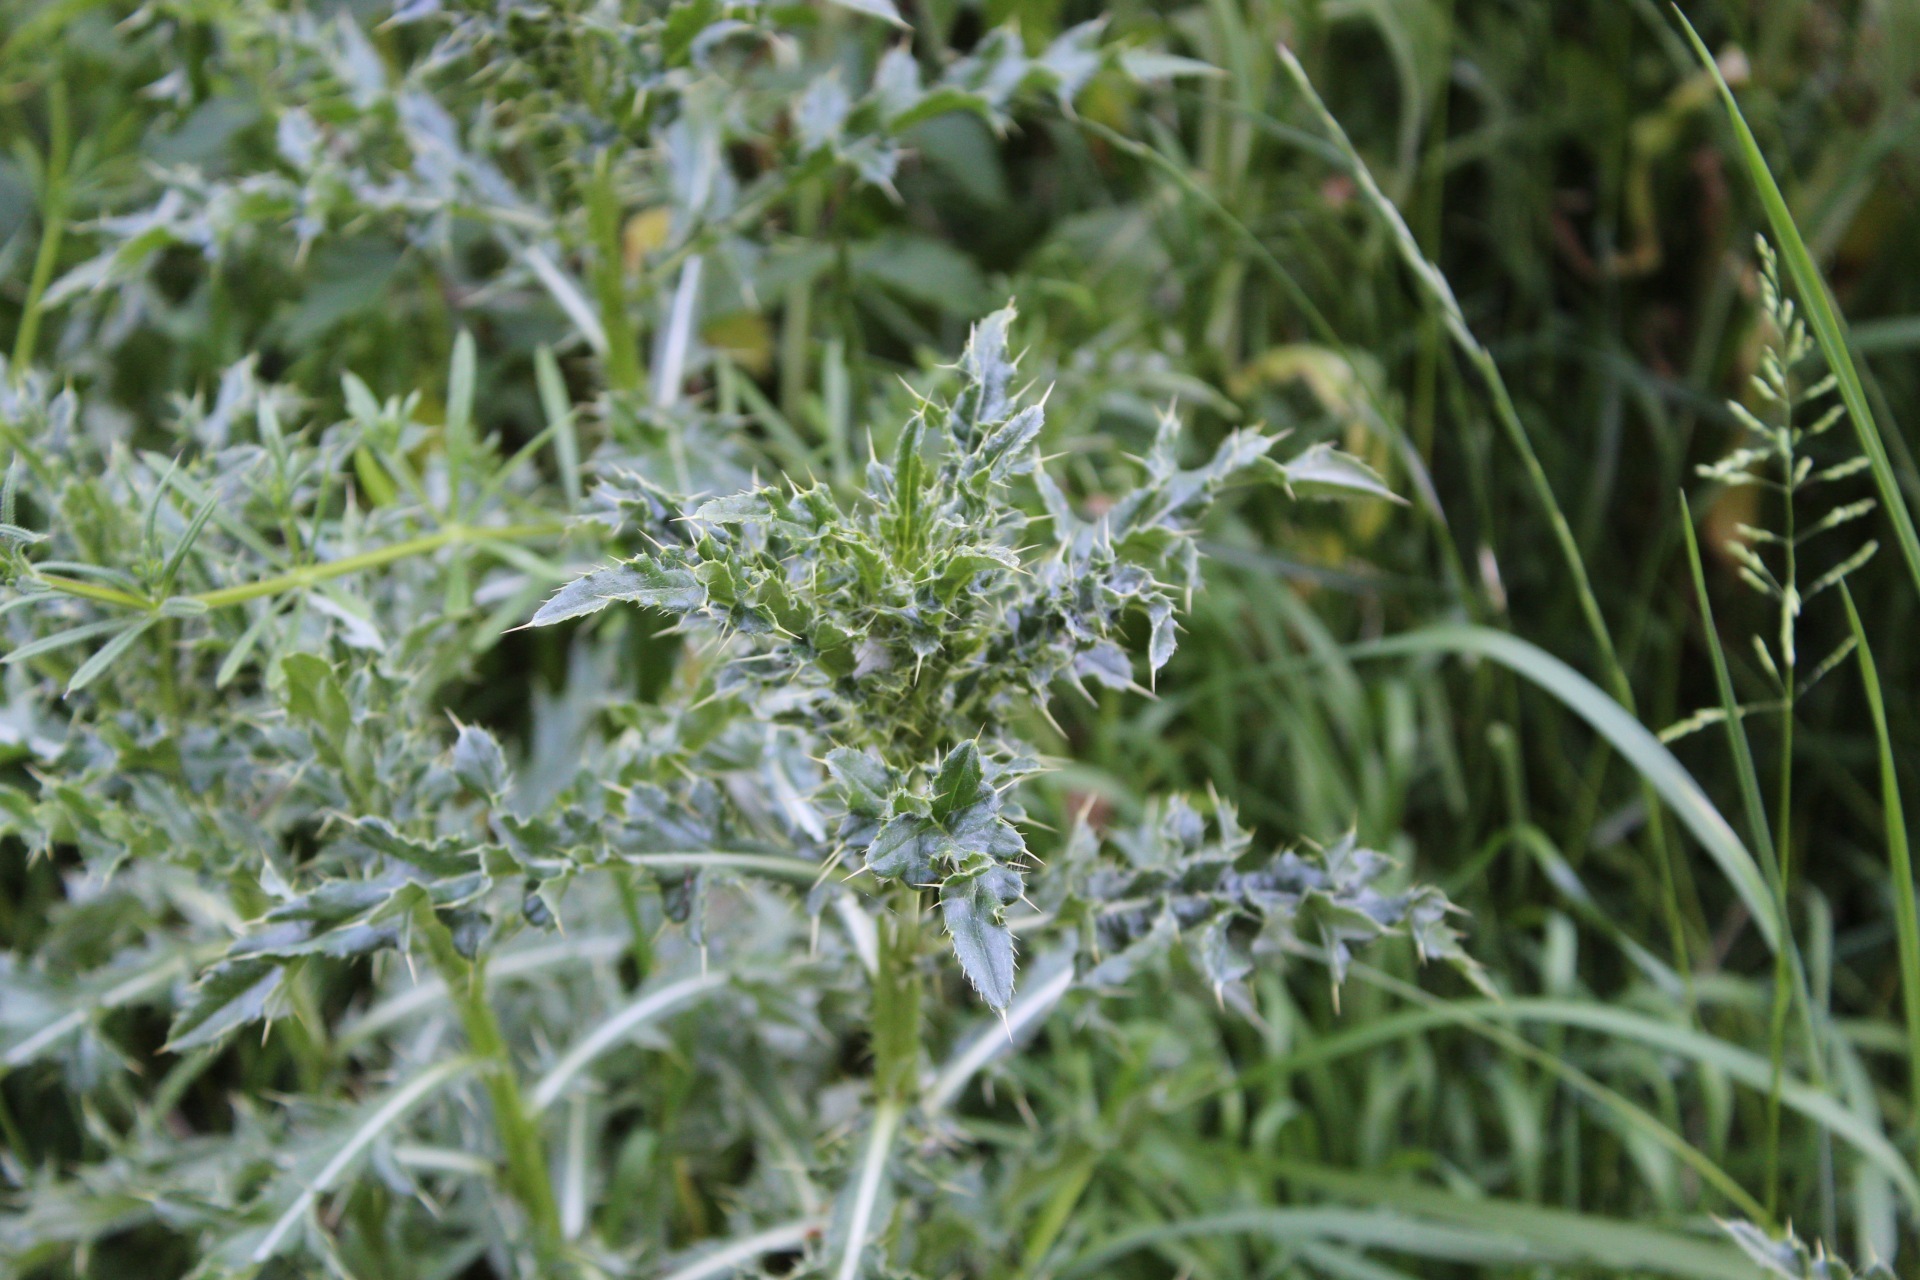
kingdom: Plantae
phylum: Tracheophyta
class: Magnoliopsida
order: Asterales
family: Asteraceae
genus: Cirsium
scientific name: Cirsium arvense
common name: Creeping thistle
